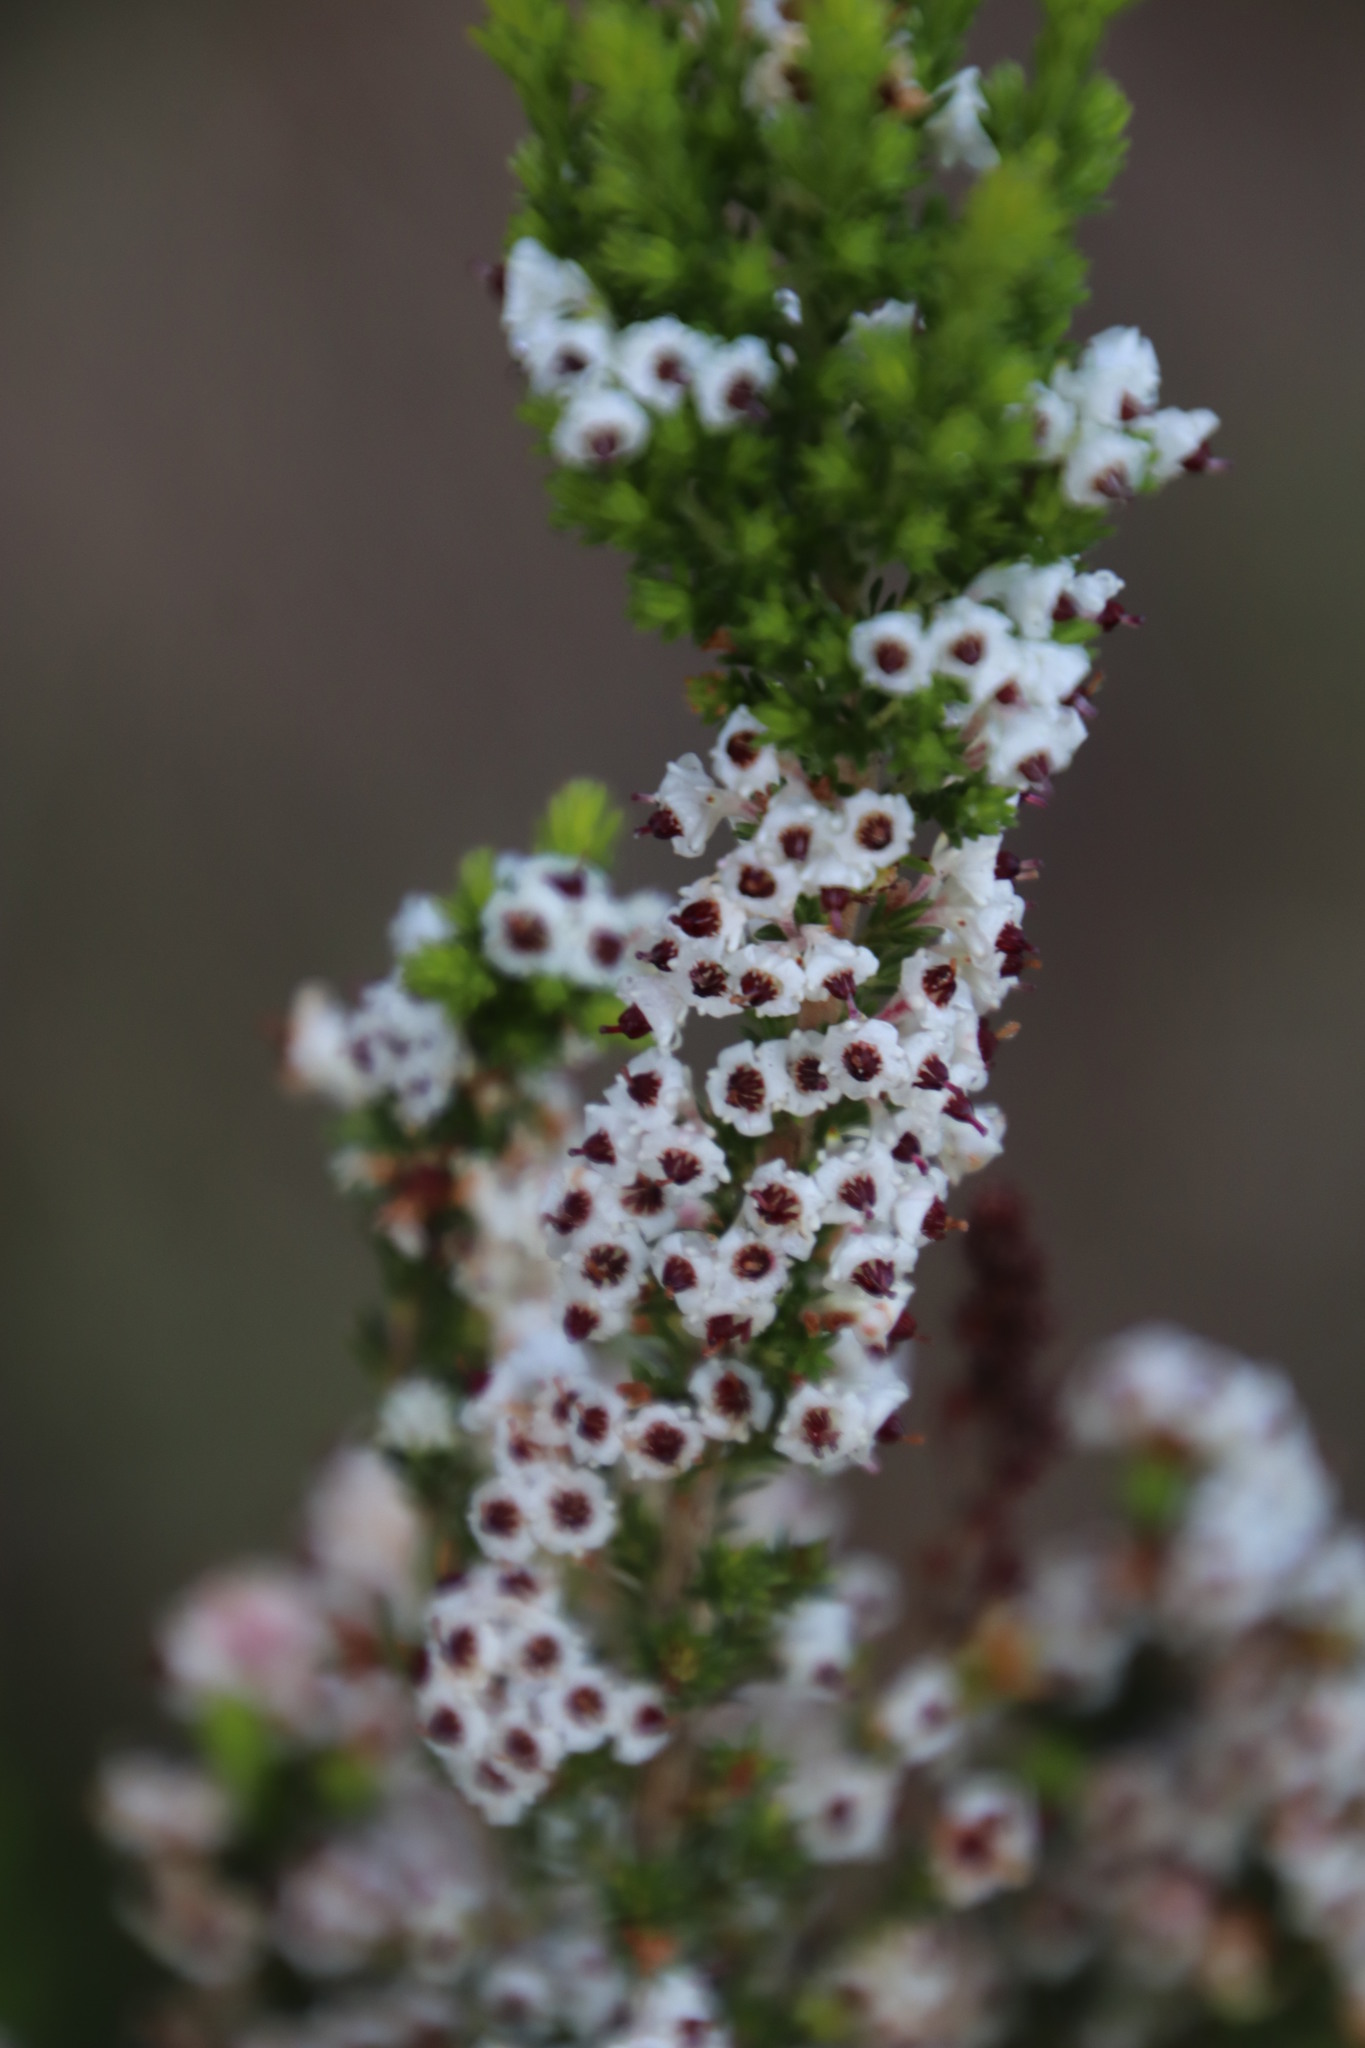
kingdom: Plantae
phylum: Tracheophyta
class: Magnoliopsida
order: Ericales
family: Ericaceae
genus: Erica
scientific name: Erica calycina
